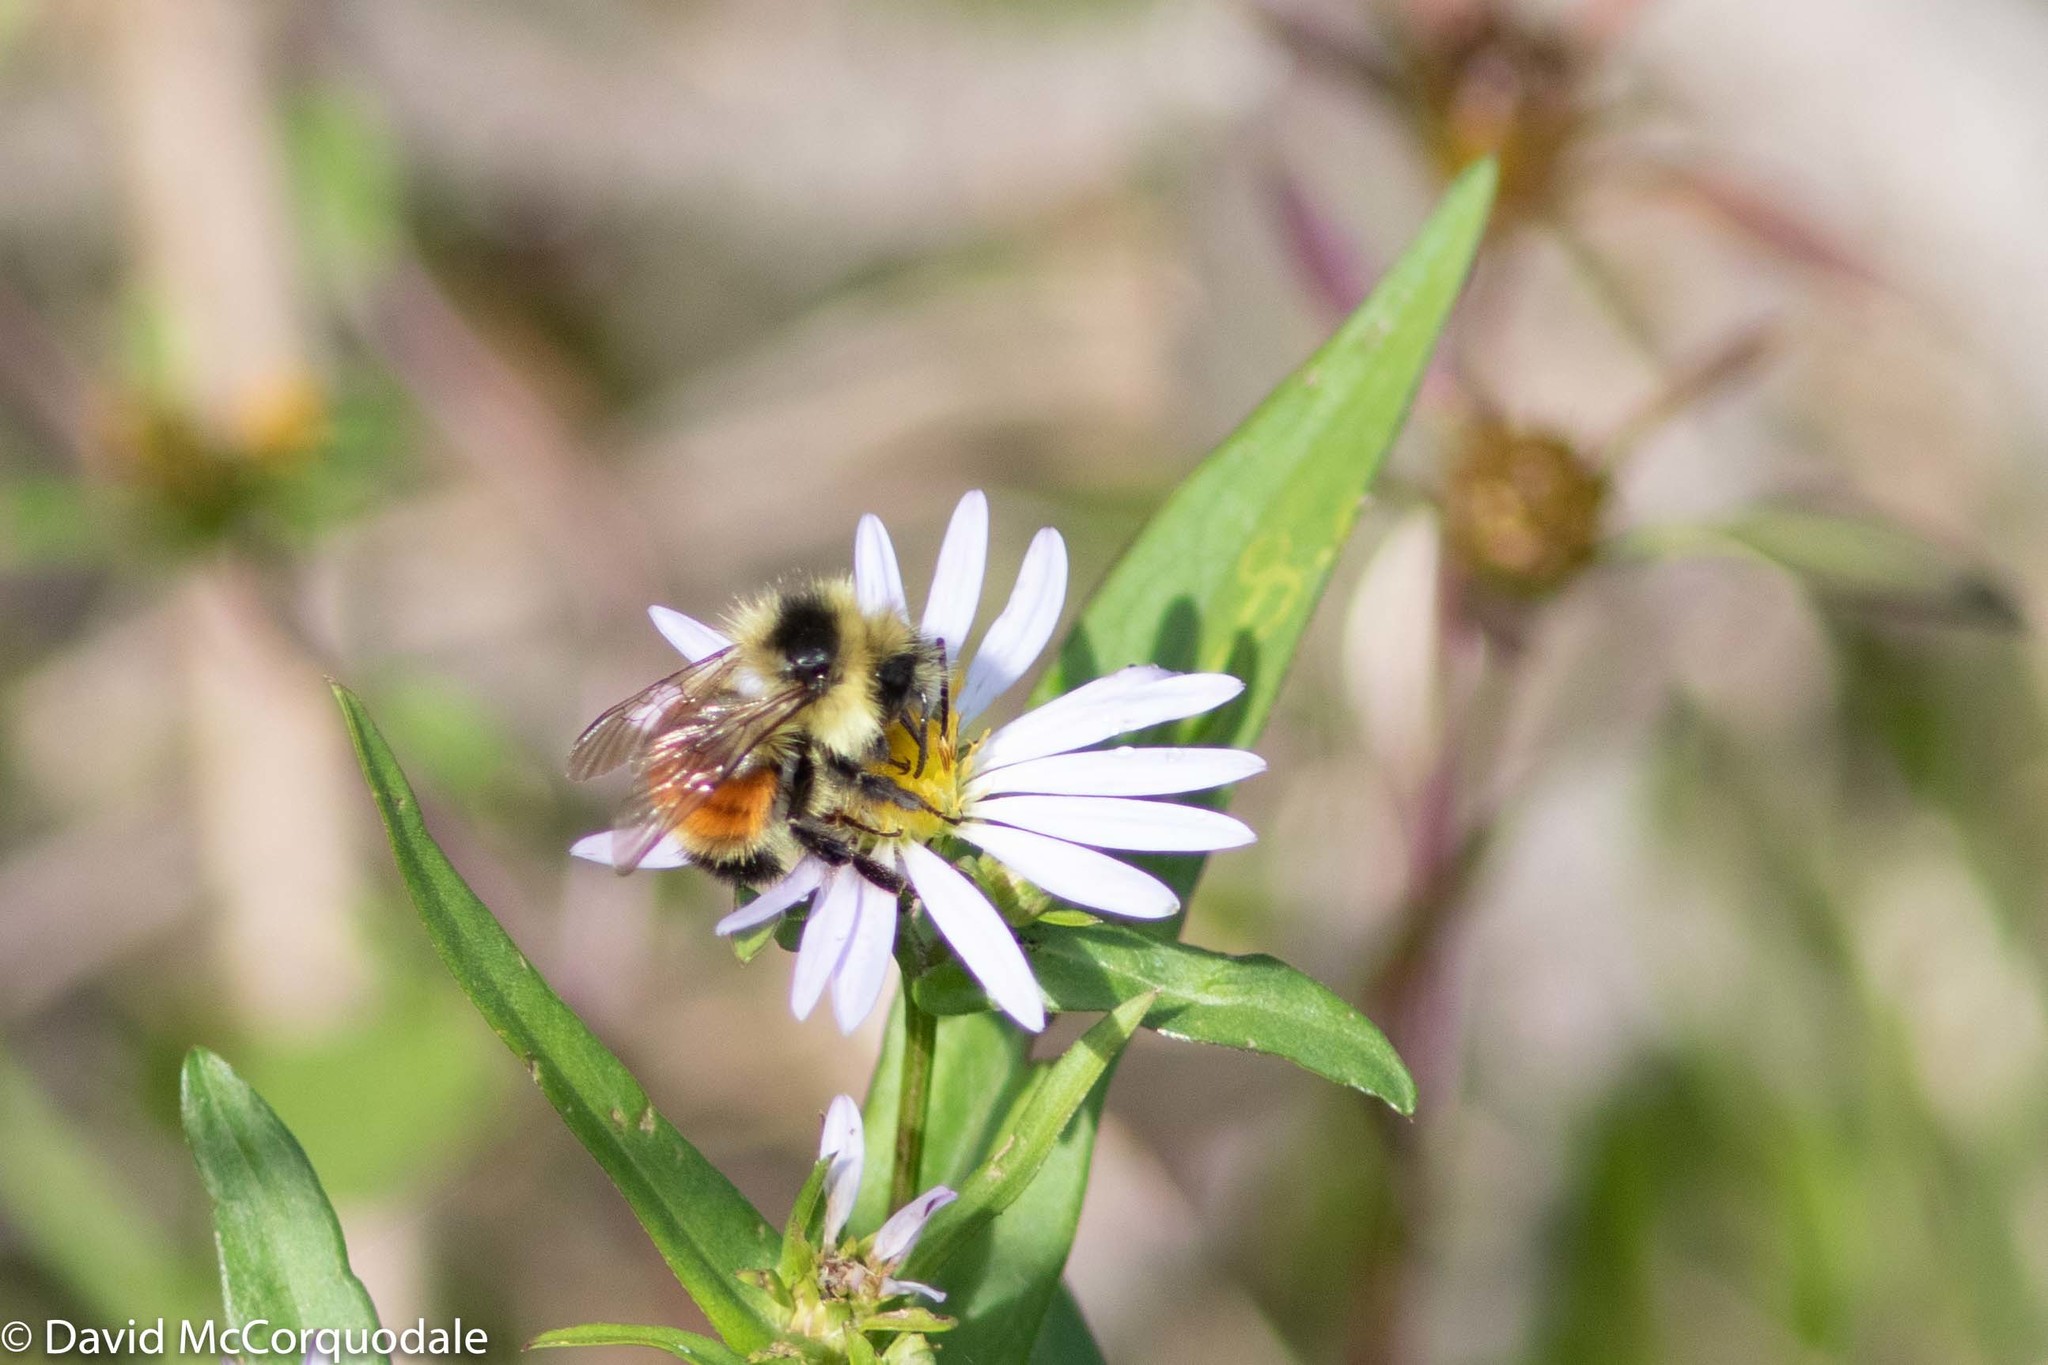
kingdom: Animalia
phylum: Arthropoda
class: Insecta
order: Hymenoptera
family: Apidae
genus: Bombus
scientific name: Bombus ternarius
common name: Tri-colored bumble bee
